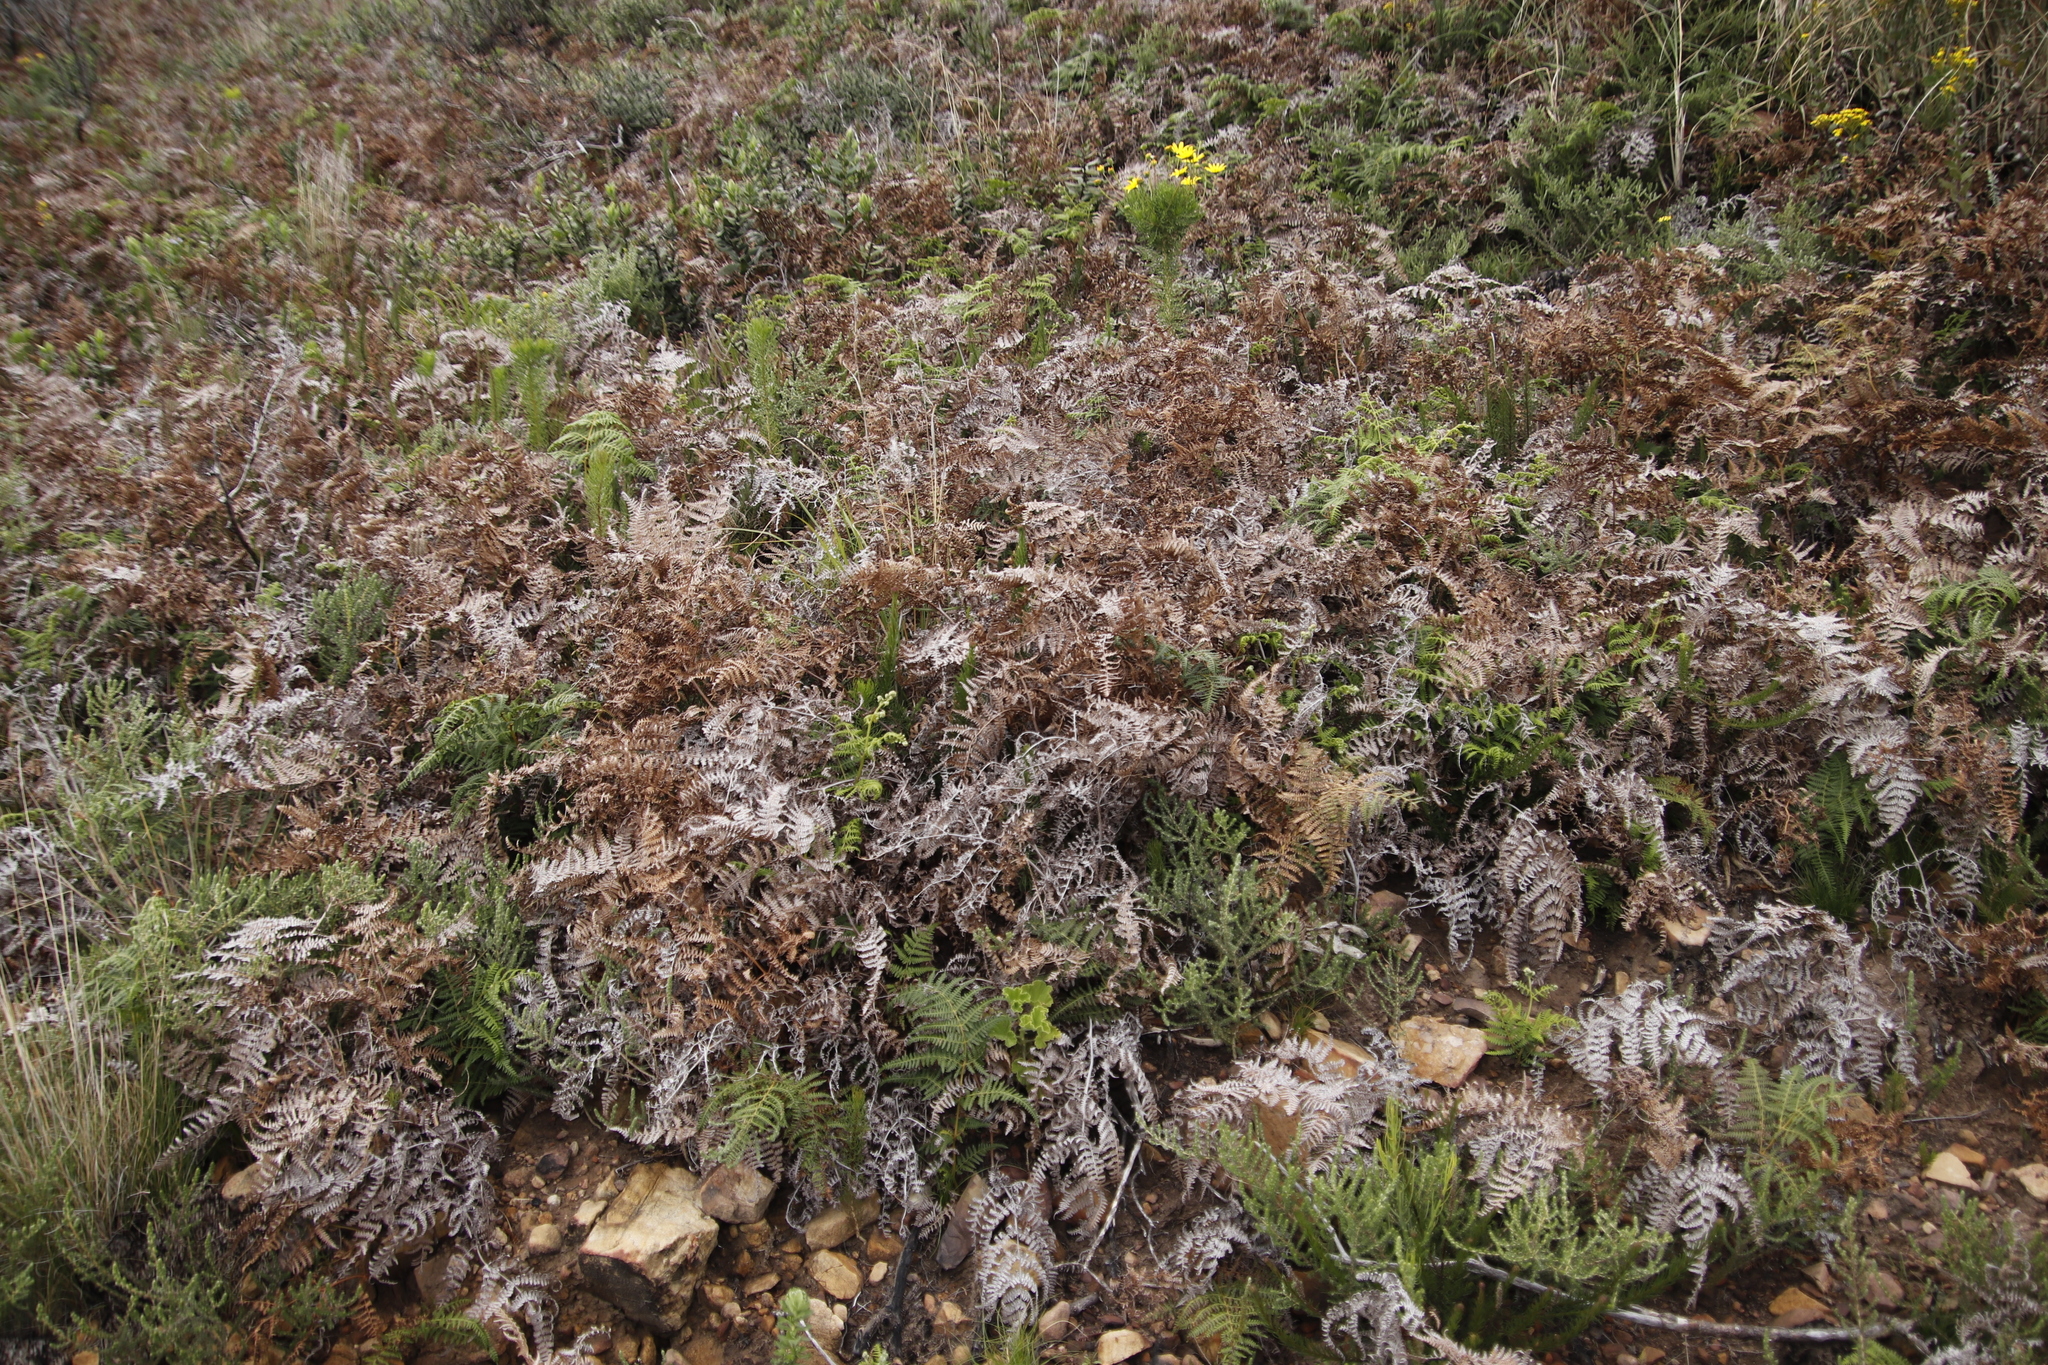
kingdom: Plantae
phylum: Tracheophyta
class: Polypodiopsida
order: Polypodiales
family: Dennstaedtiaceae
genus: Pteridium
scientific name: Pteridium aquilinum
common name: Bracken
